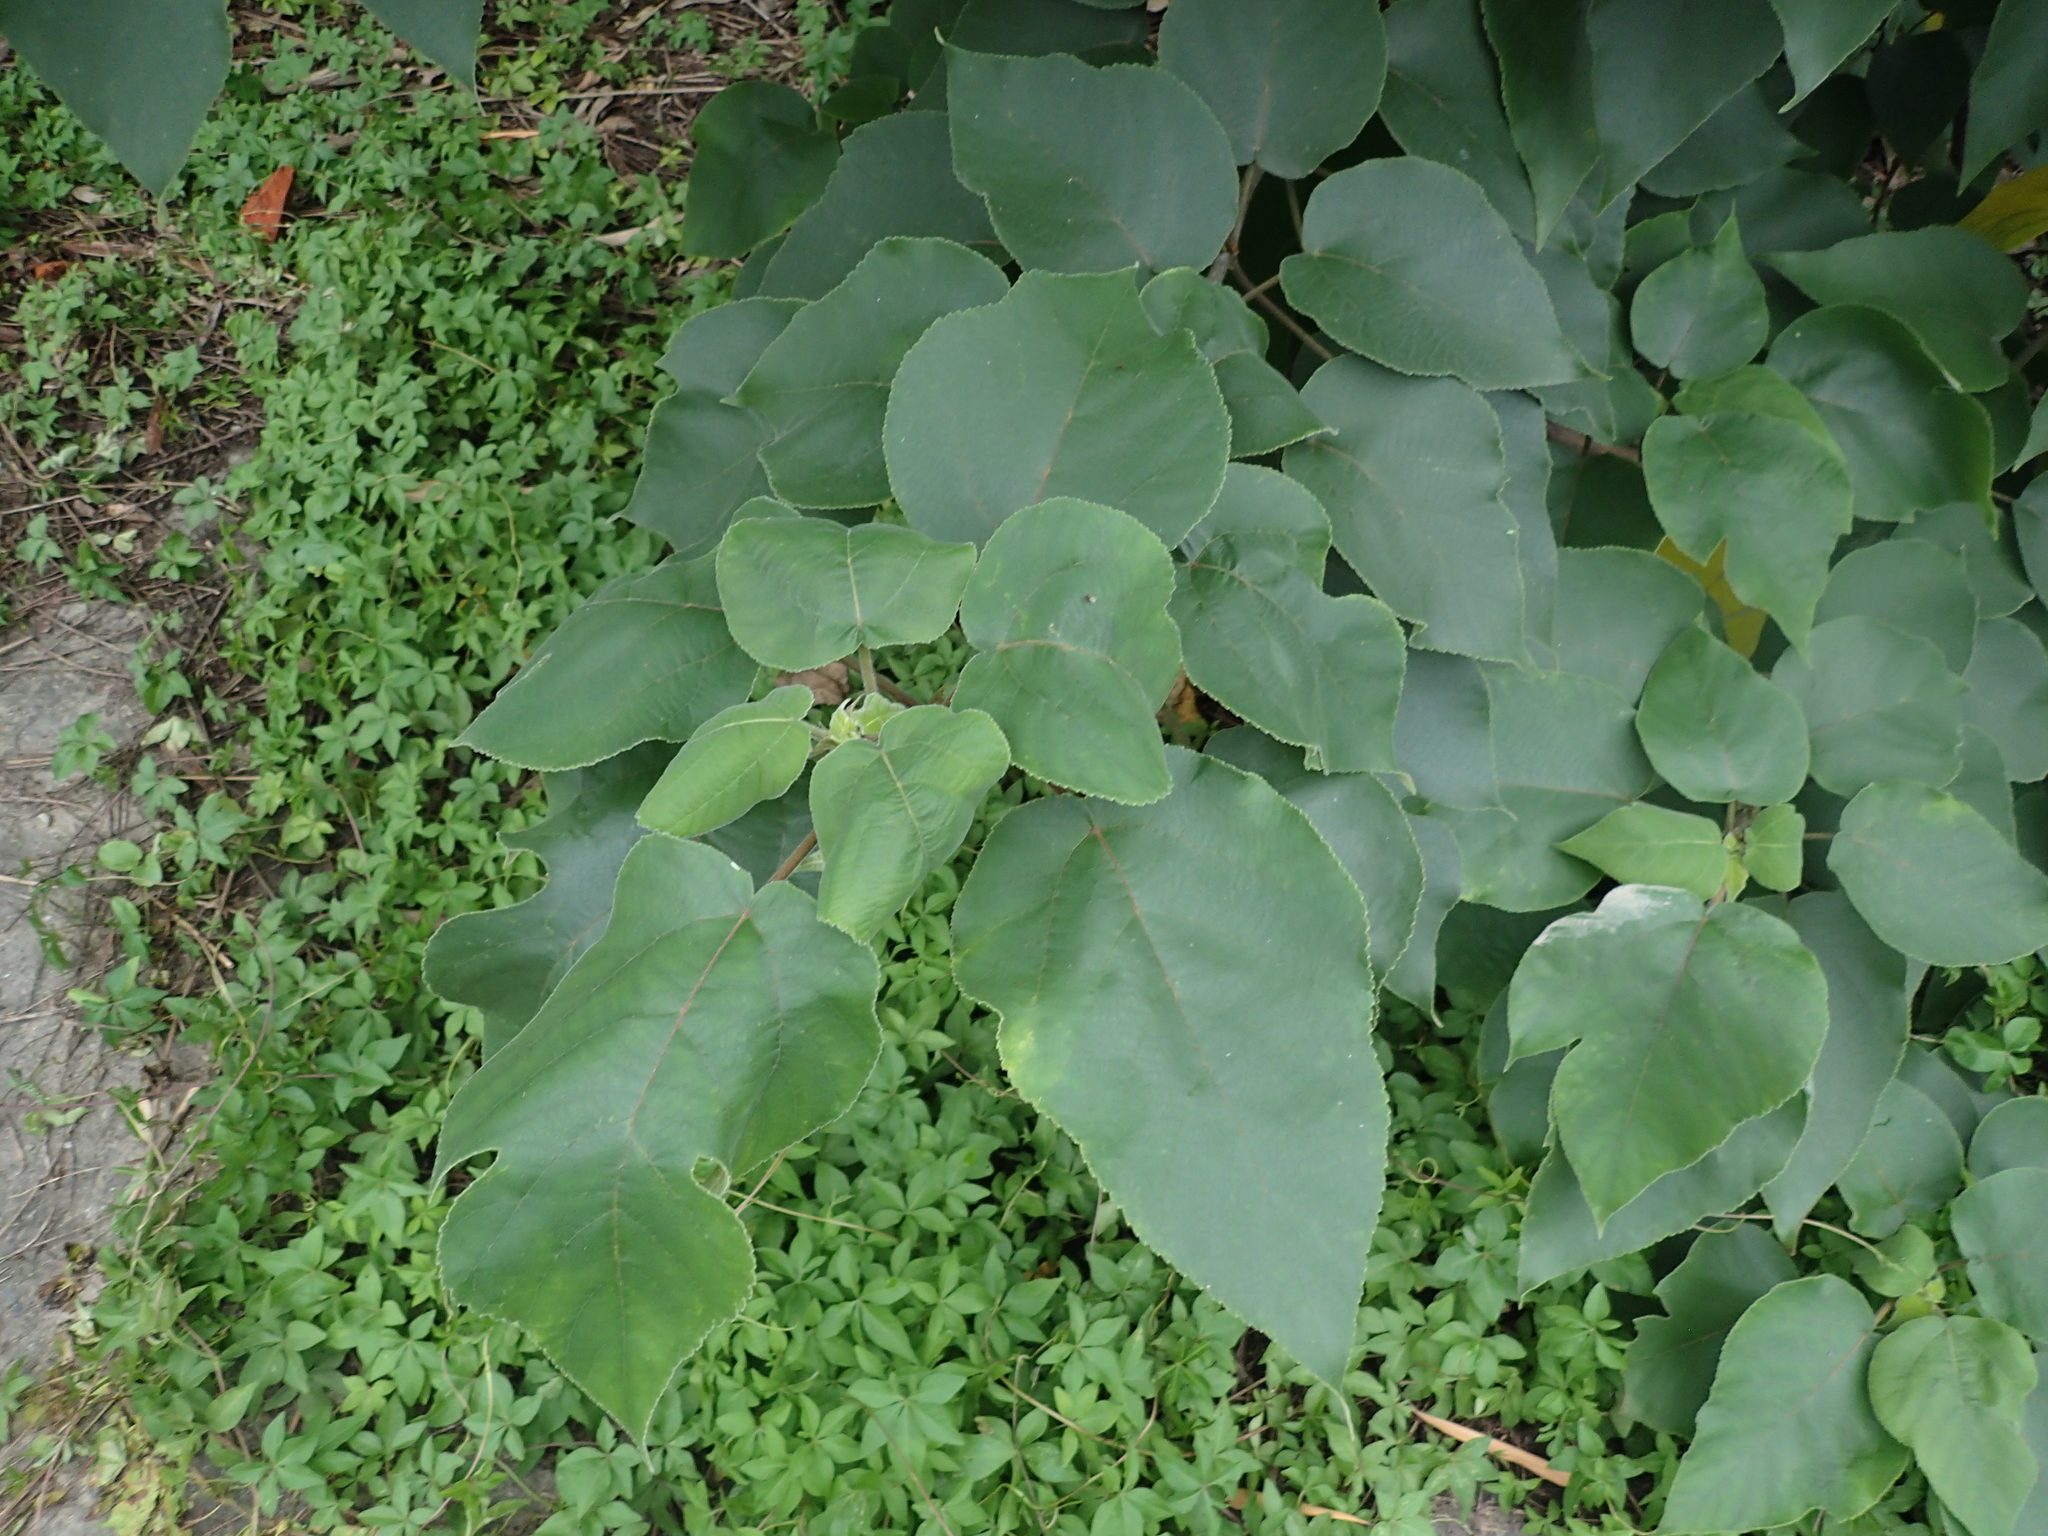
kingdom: Plantae
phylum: Tracheophyta
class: Magnoliopsida
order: Rosales
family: Moraceae
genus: Broussonetia
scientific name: Broussonetia papyrifera
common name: Paper mulberry
